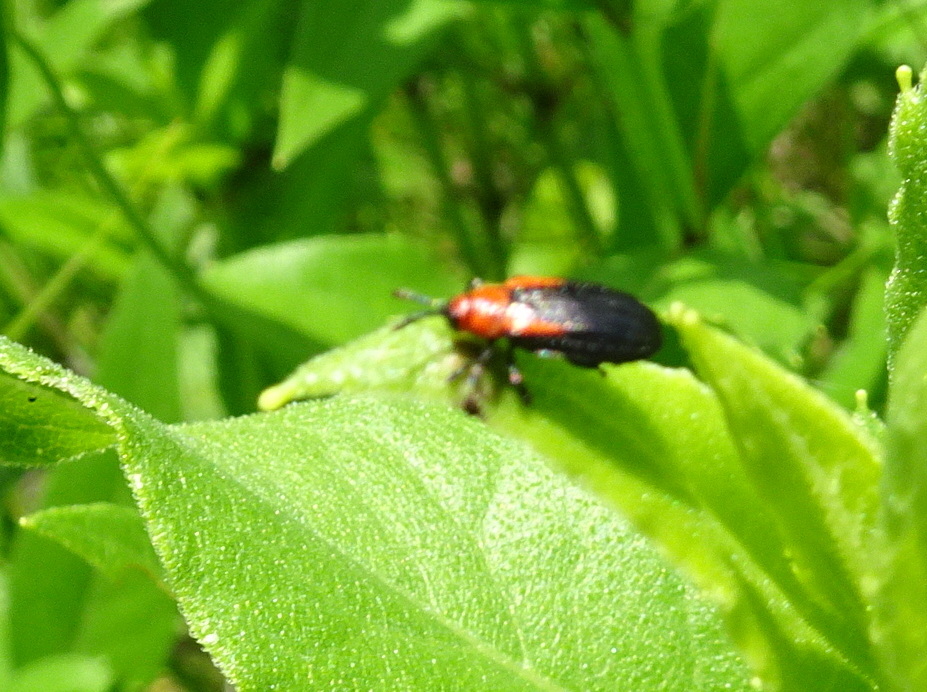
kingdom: Animalia
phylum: Arthropoda
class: Insecta
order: Coleoptera
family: Chrysomelidae
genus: Microrhopala
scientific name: Microrhopala vittata
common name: Goldenrod leaf miner beetle
